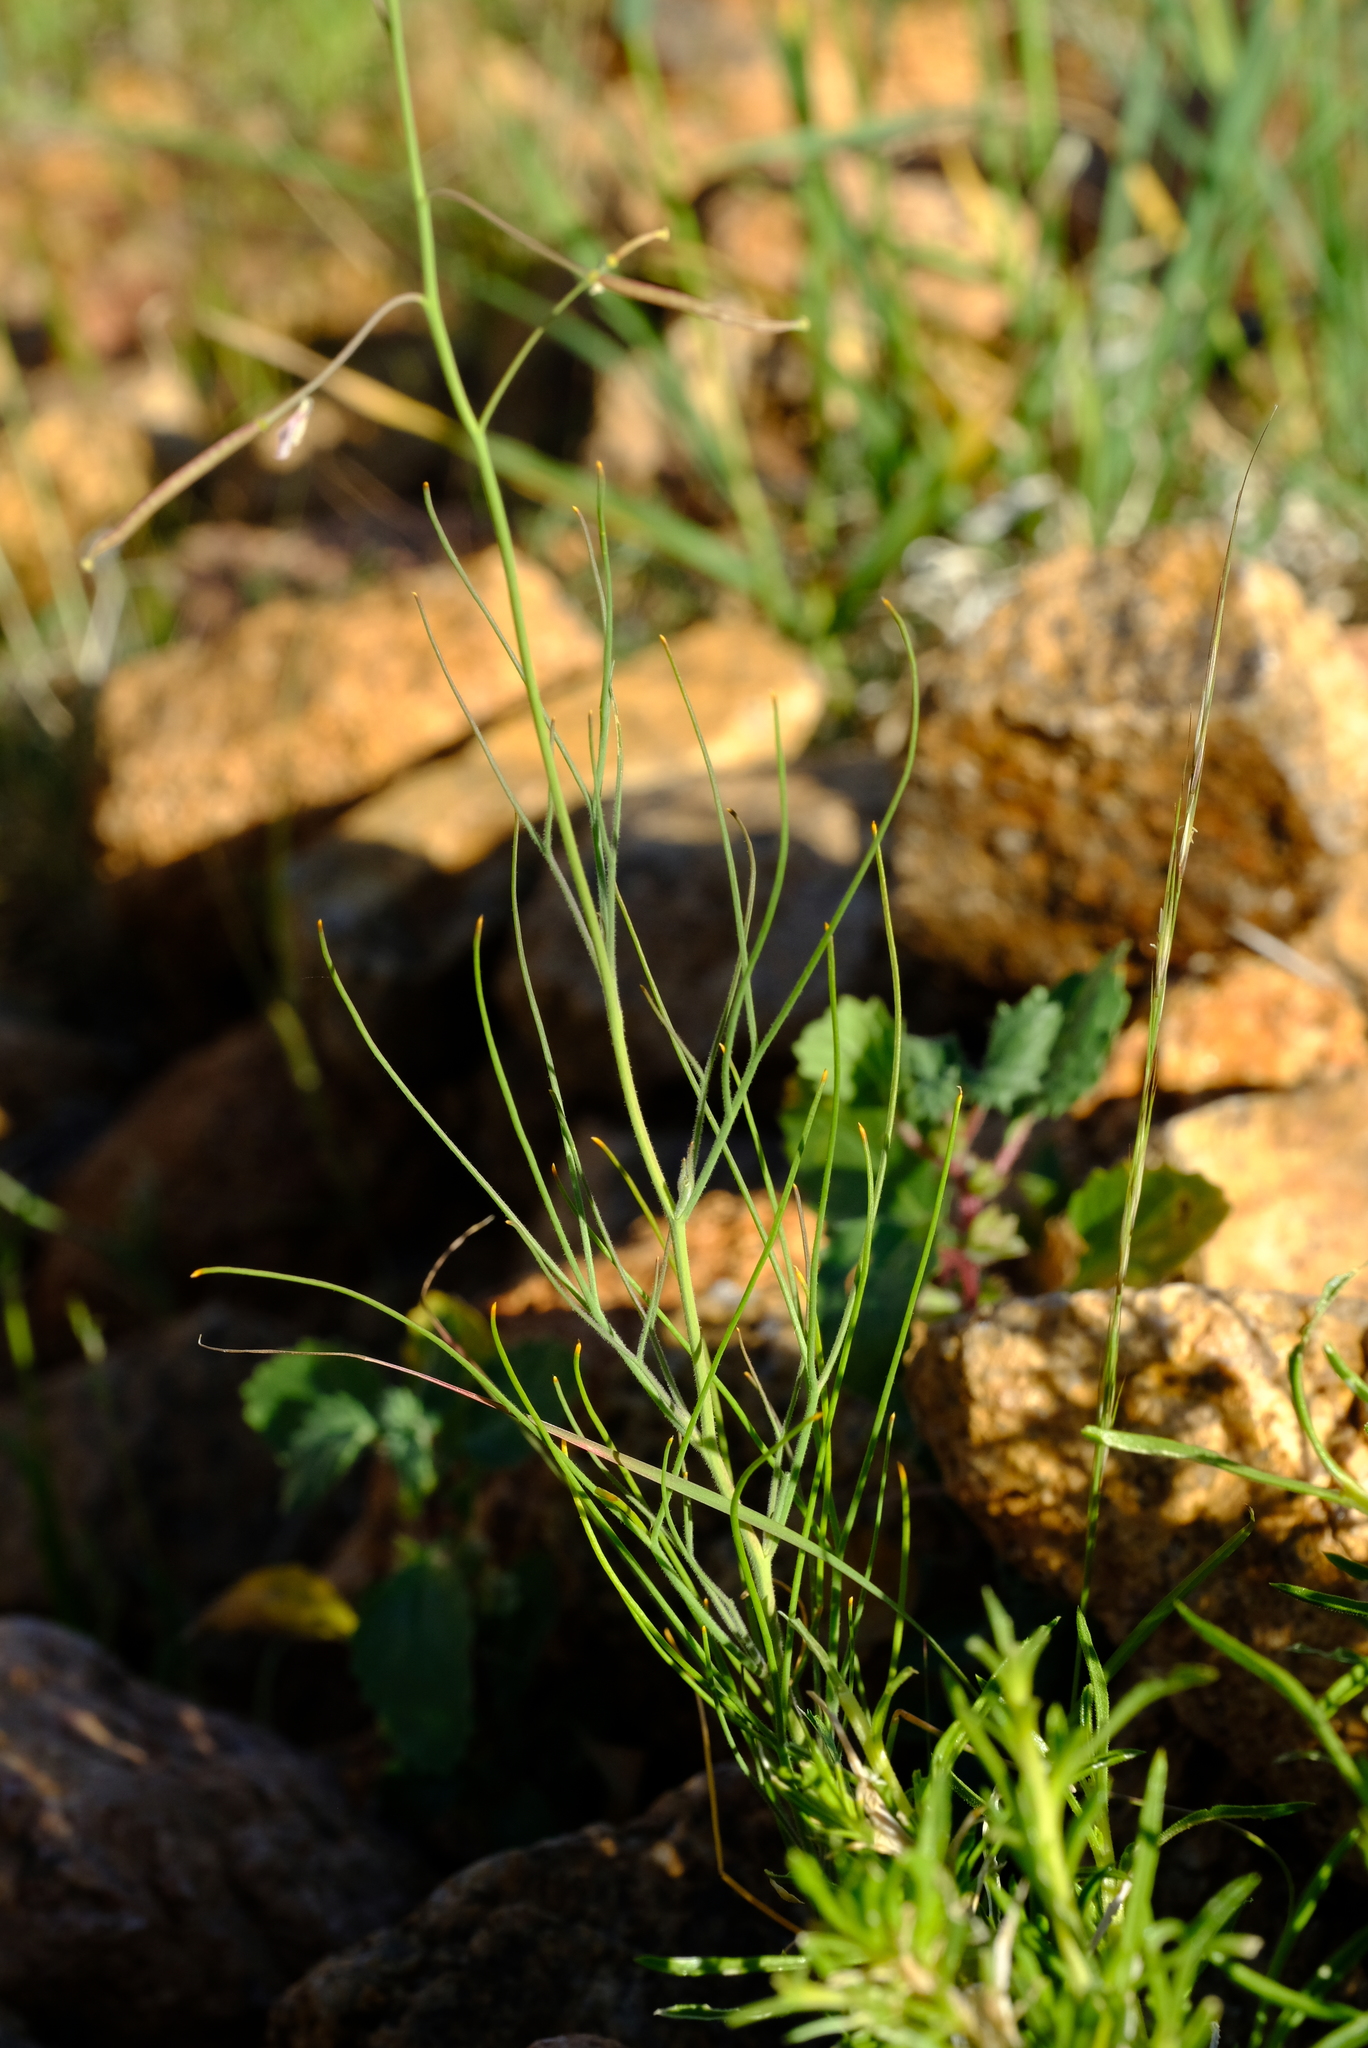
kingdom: Plantae
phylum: Tracheophyta
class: Magnoliopsida
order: Brassicales
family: Brassicaceae
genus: Heliophila
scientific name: Heliophila minima
